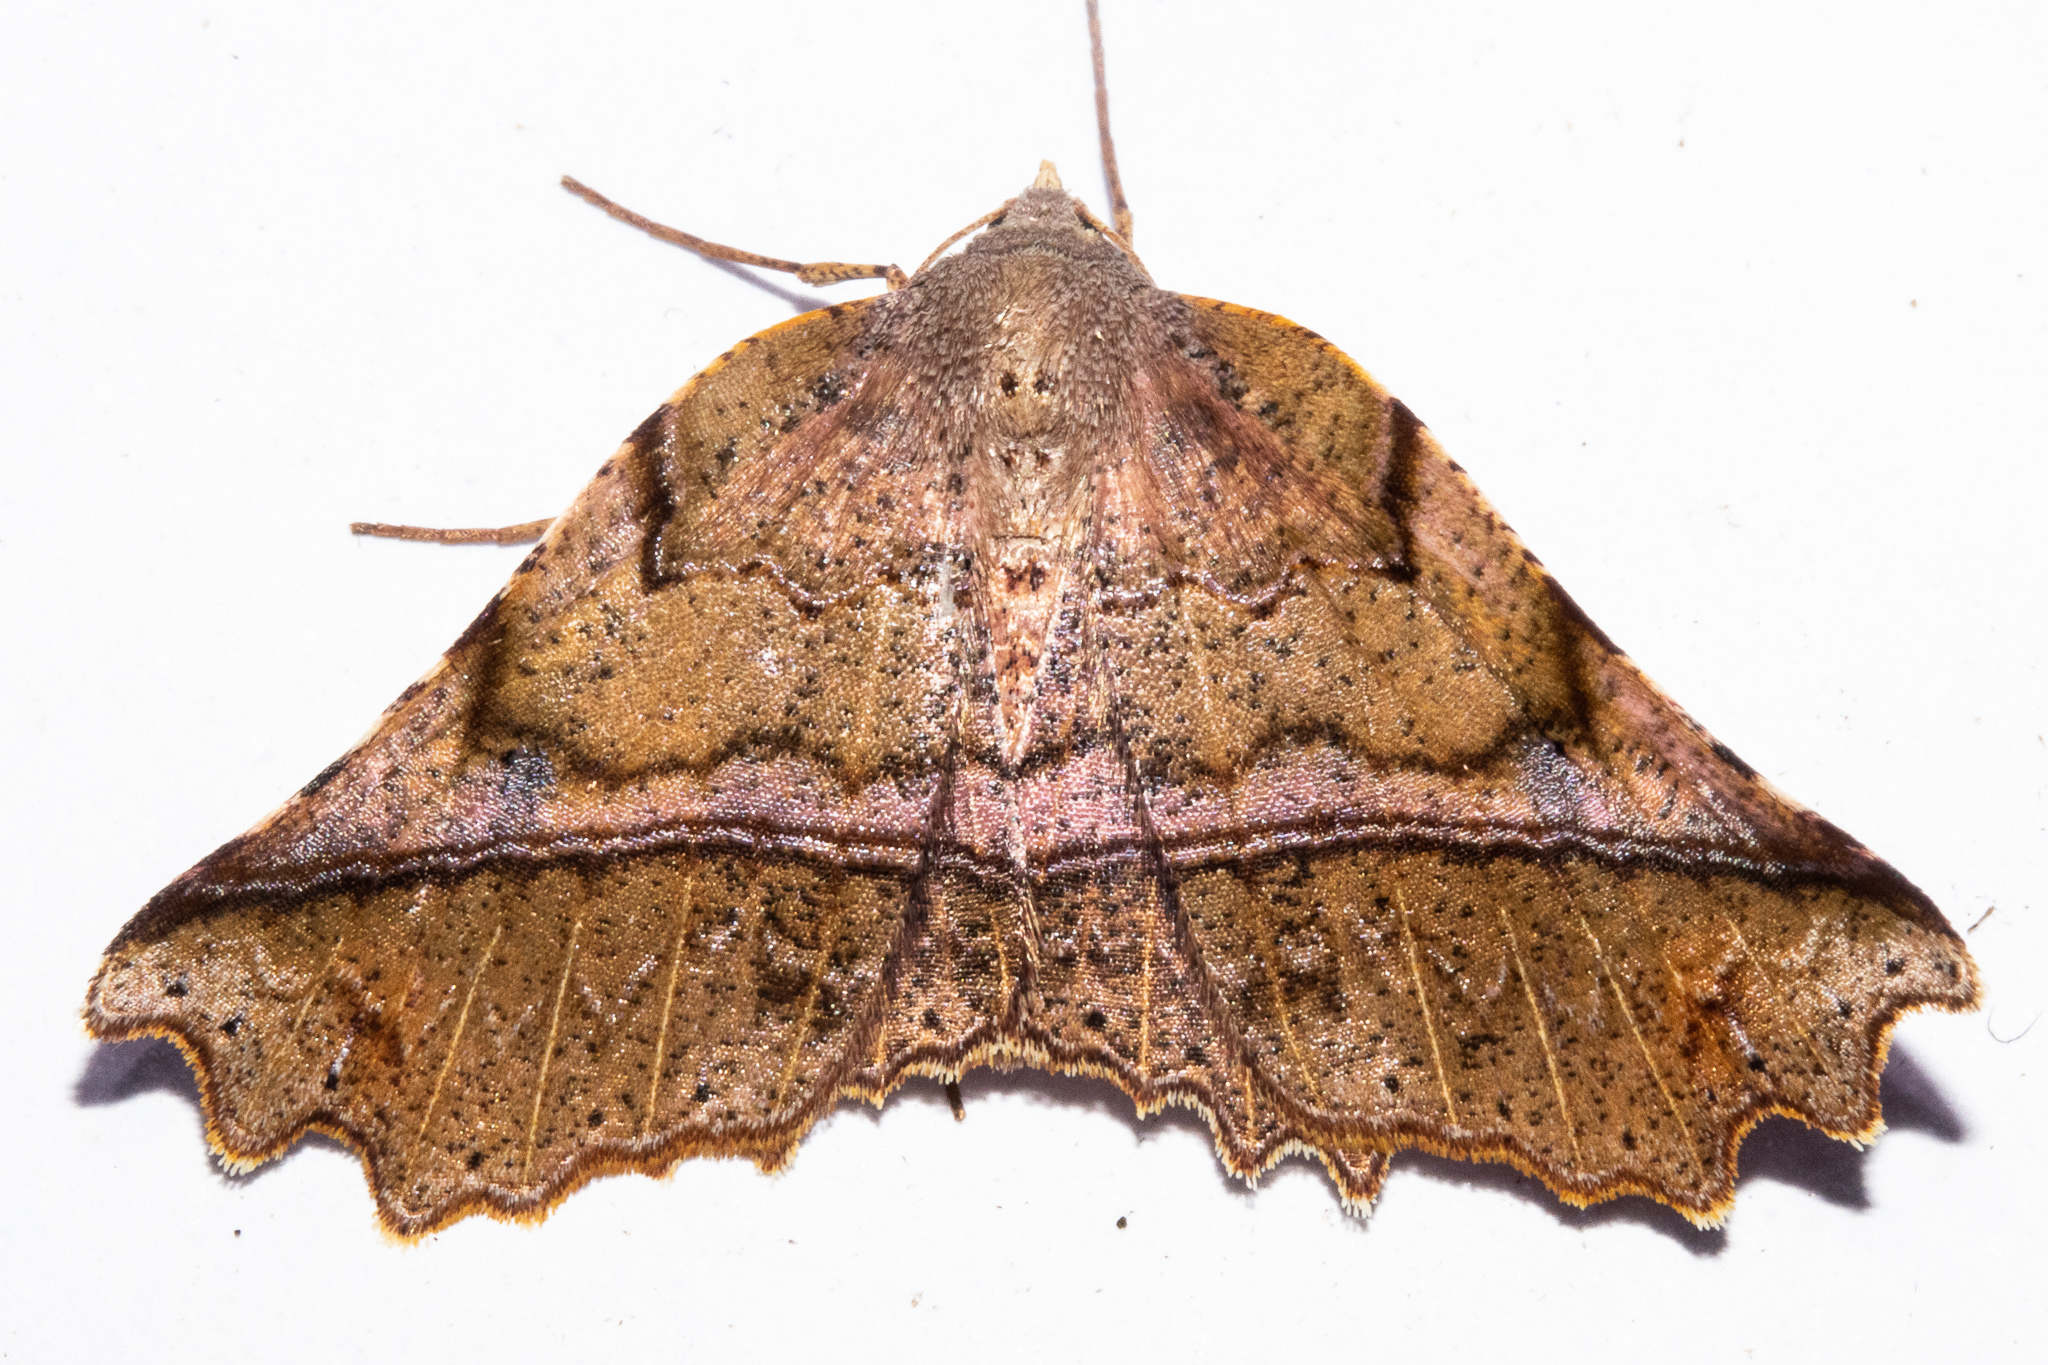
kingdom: Animalia
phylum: Arthropoda
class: Insecta
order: Lepidoptera
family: Geometridae
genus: Ischalis
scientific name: Ischalis gallaria
